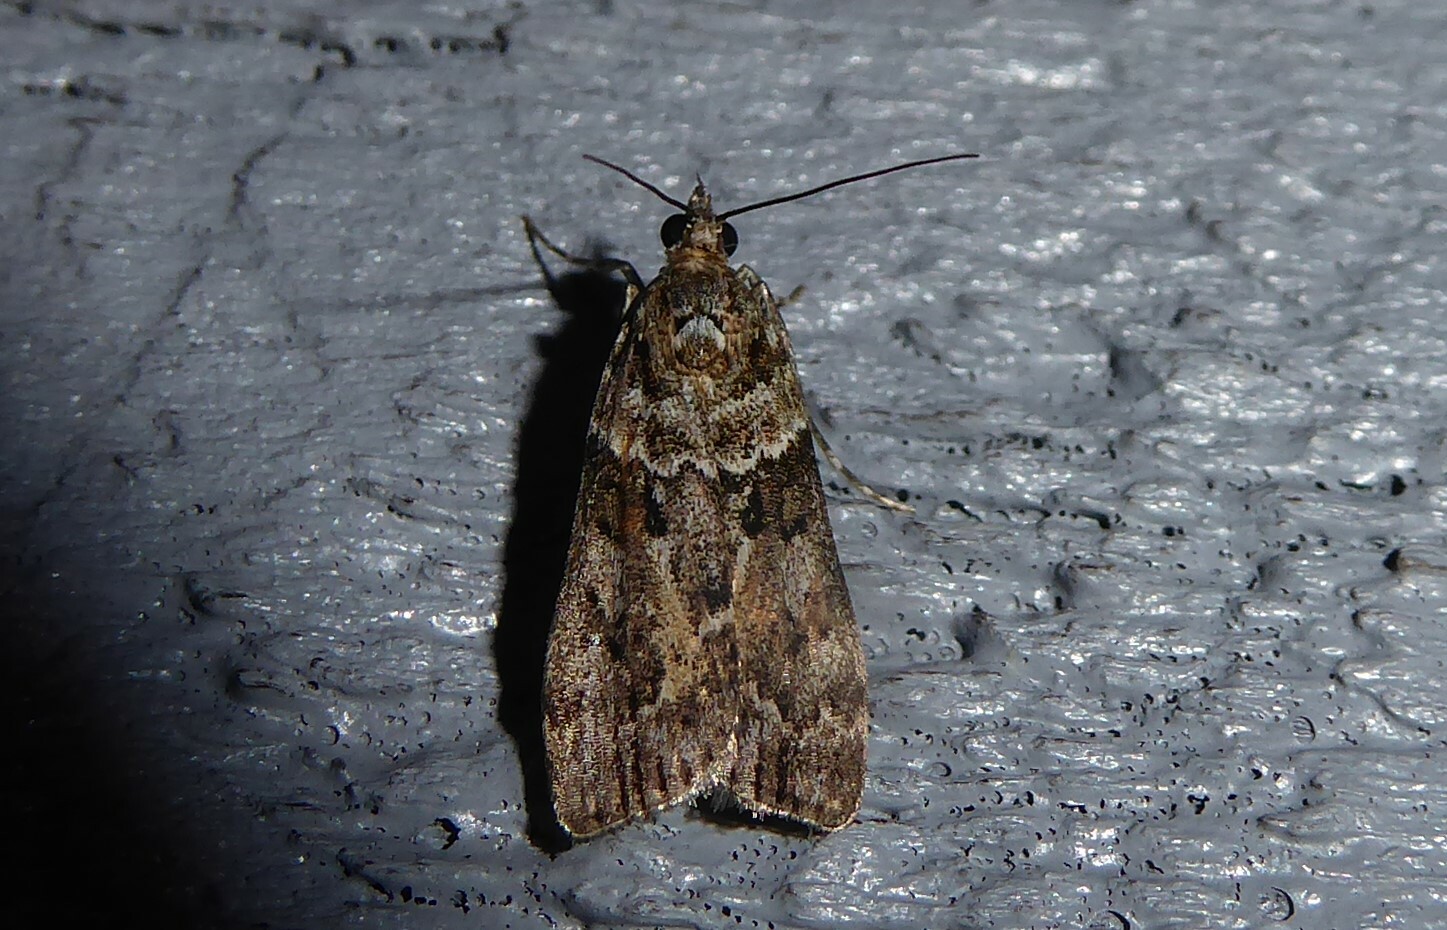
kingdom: Animalia
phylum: Arthropoda
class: Insecta
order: Lepidoptera
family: Crambidae
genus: Eudonia
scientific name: Eudonia submarginalis
